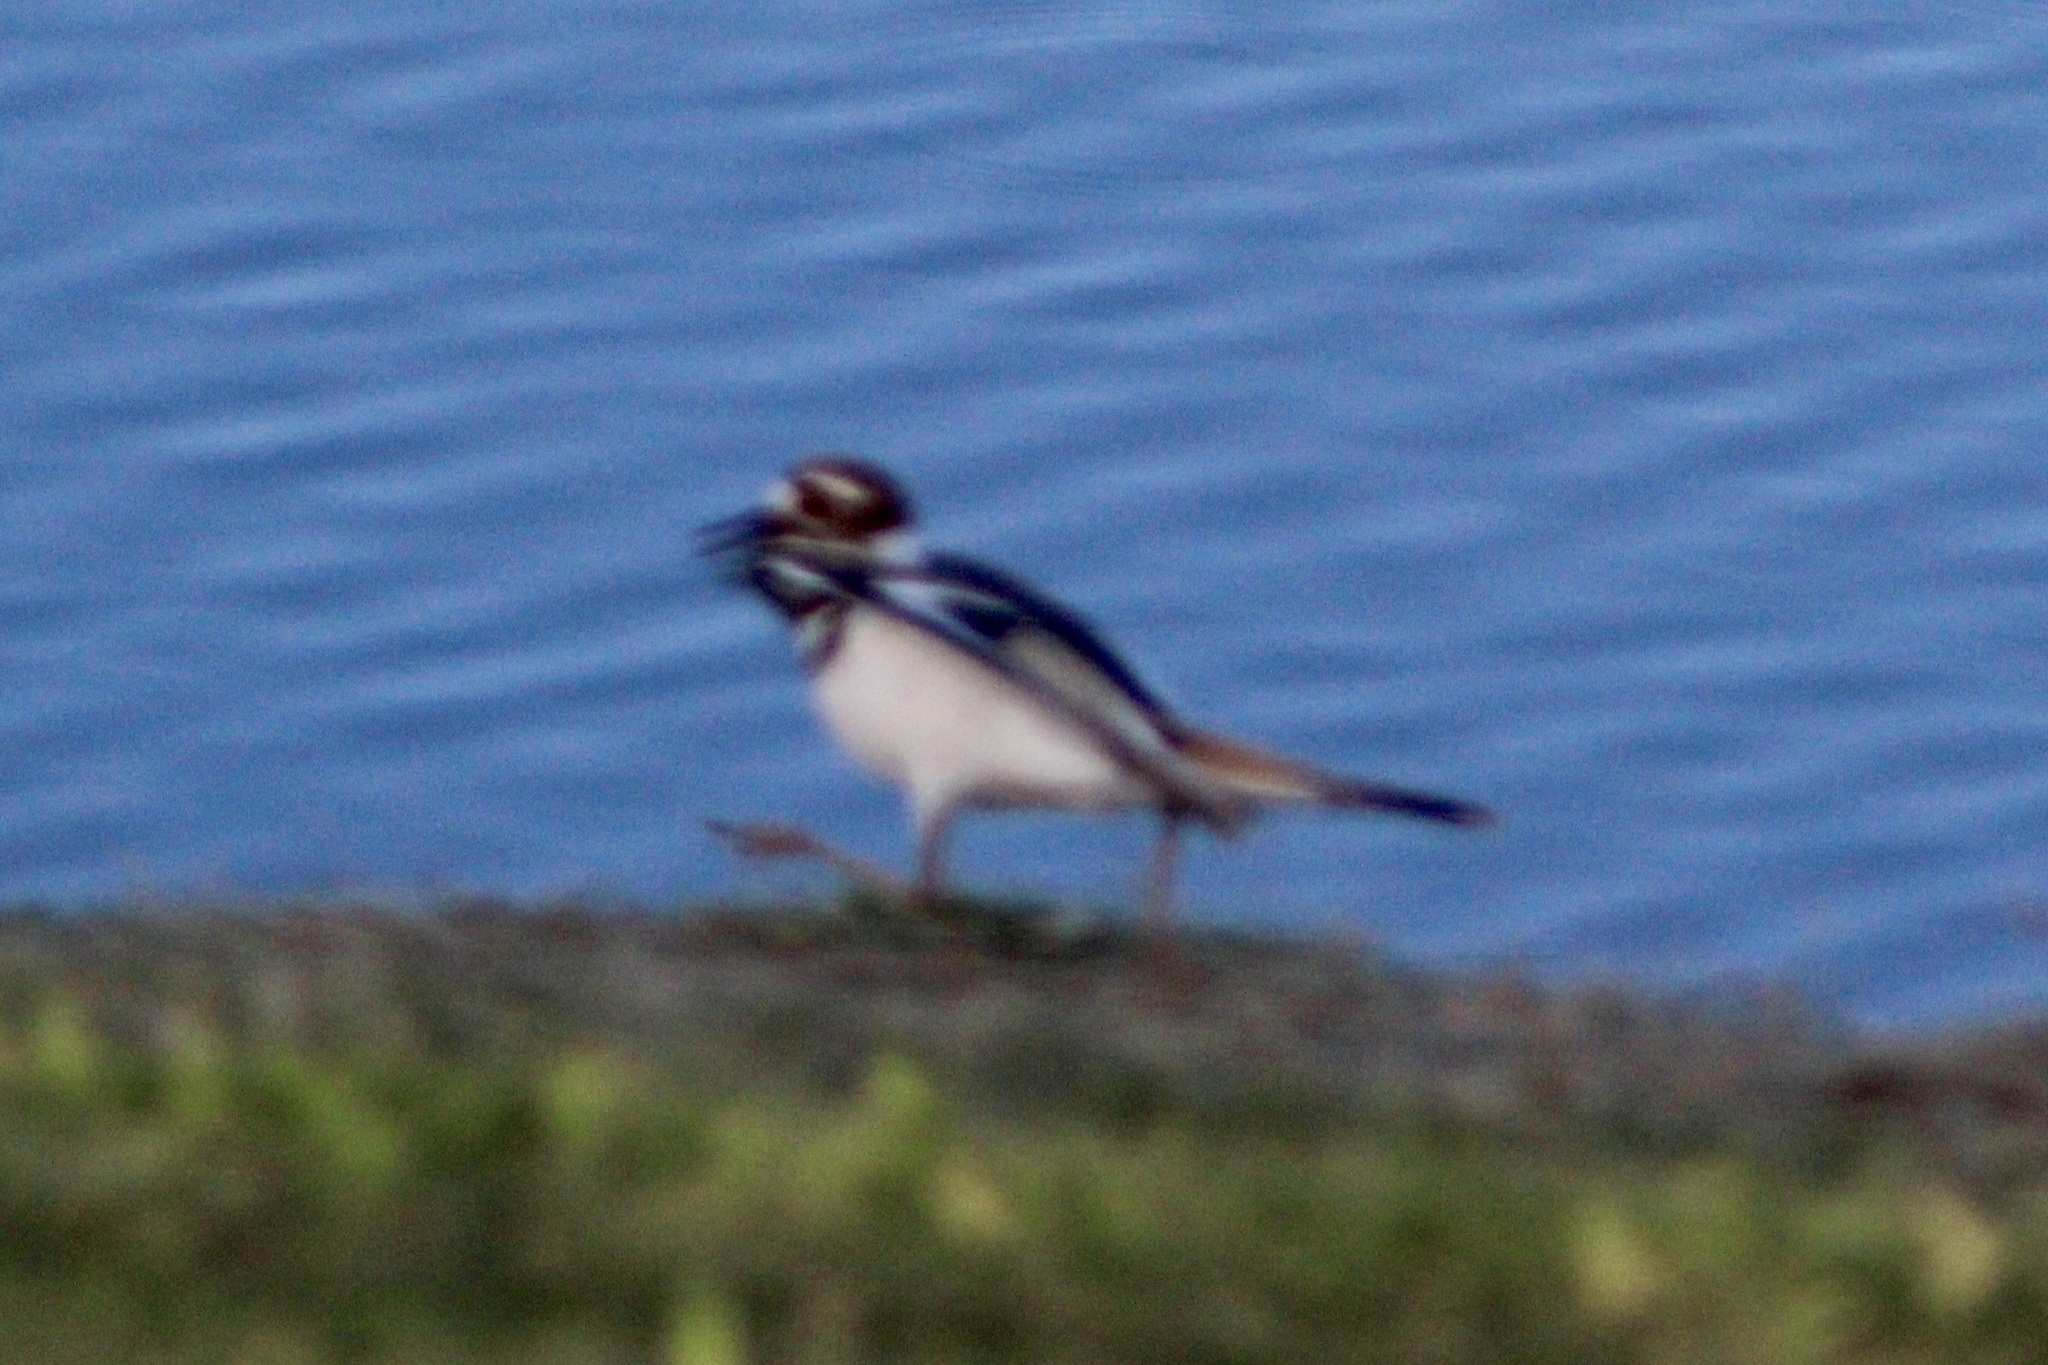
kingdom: Animalia
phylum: Chordata
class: Aves
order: Charadriiformes
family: Charadriidae
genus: Charadrius
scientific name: Charadrius vociferus
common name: Killdeer
